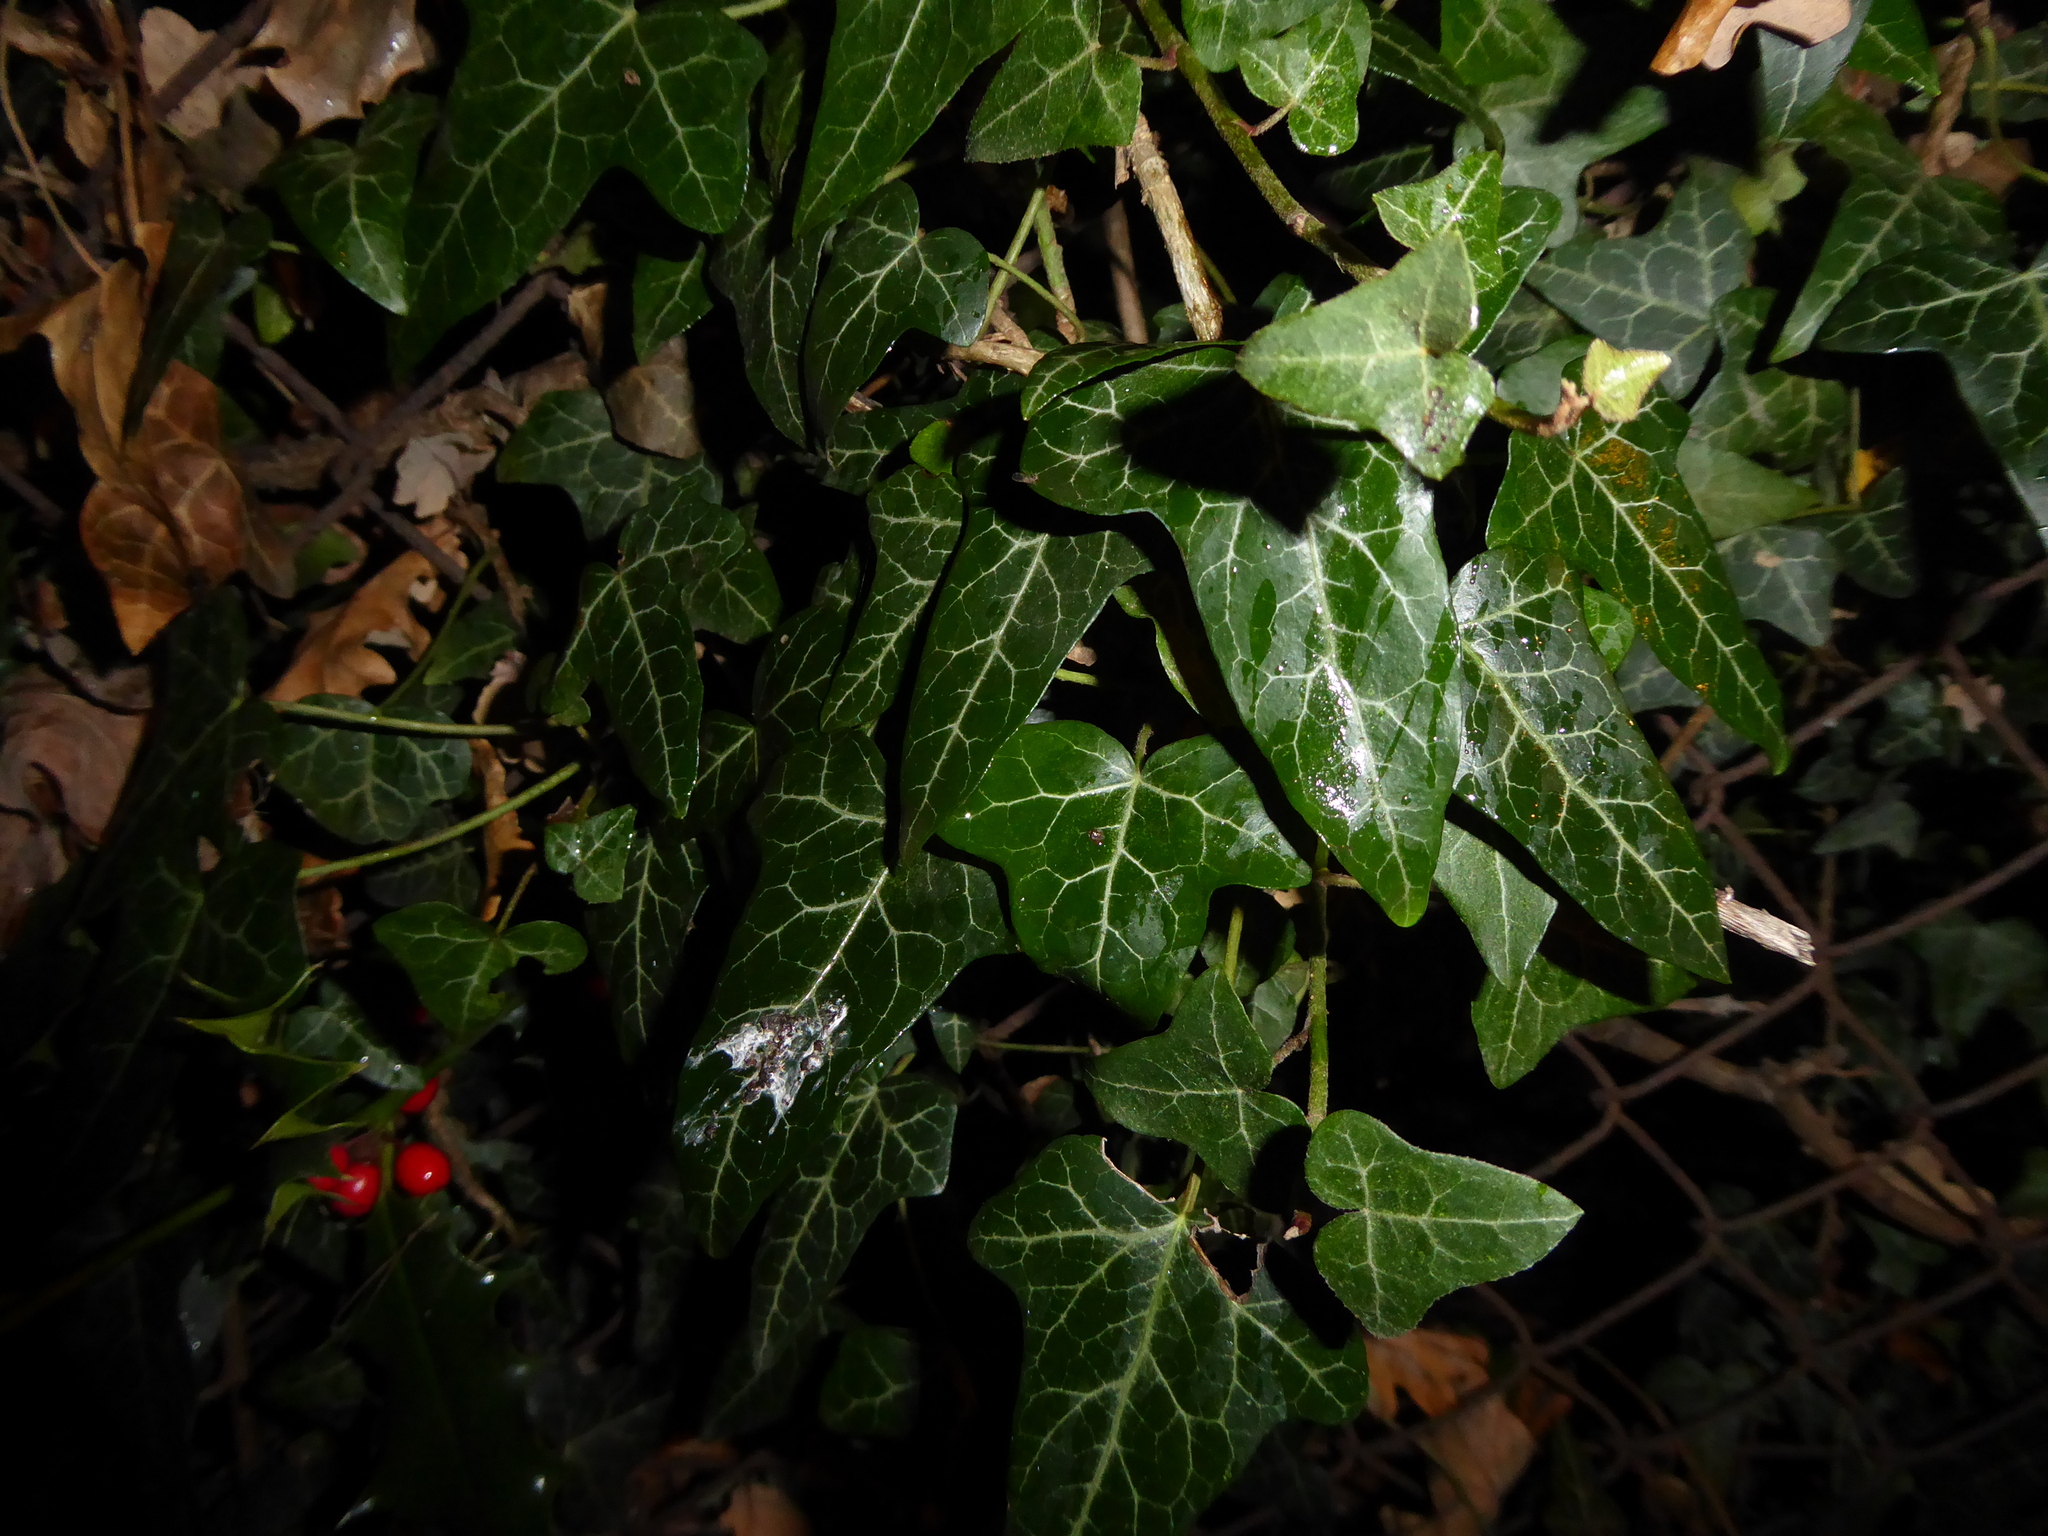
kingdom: Plantae
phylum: Tracheophyta
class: Magnoliopsida
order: Apiales
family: Araliaceae
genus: Hedera
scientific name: Hedera helix
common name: Ivy
